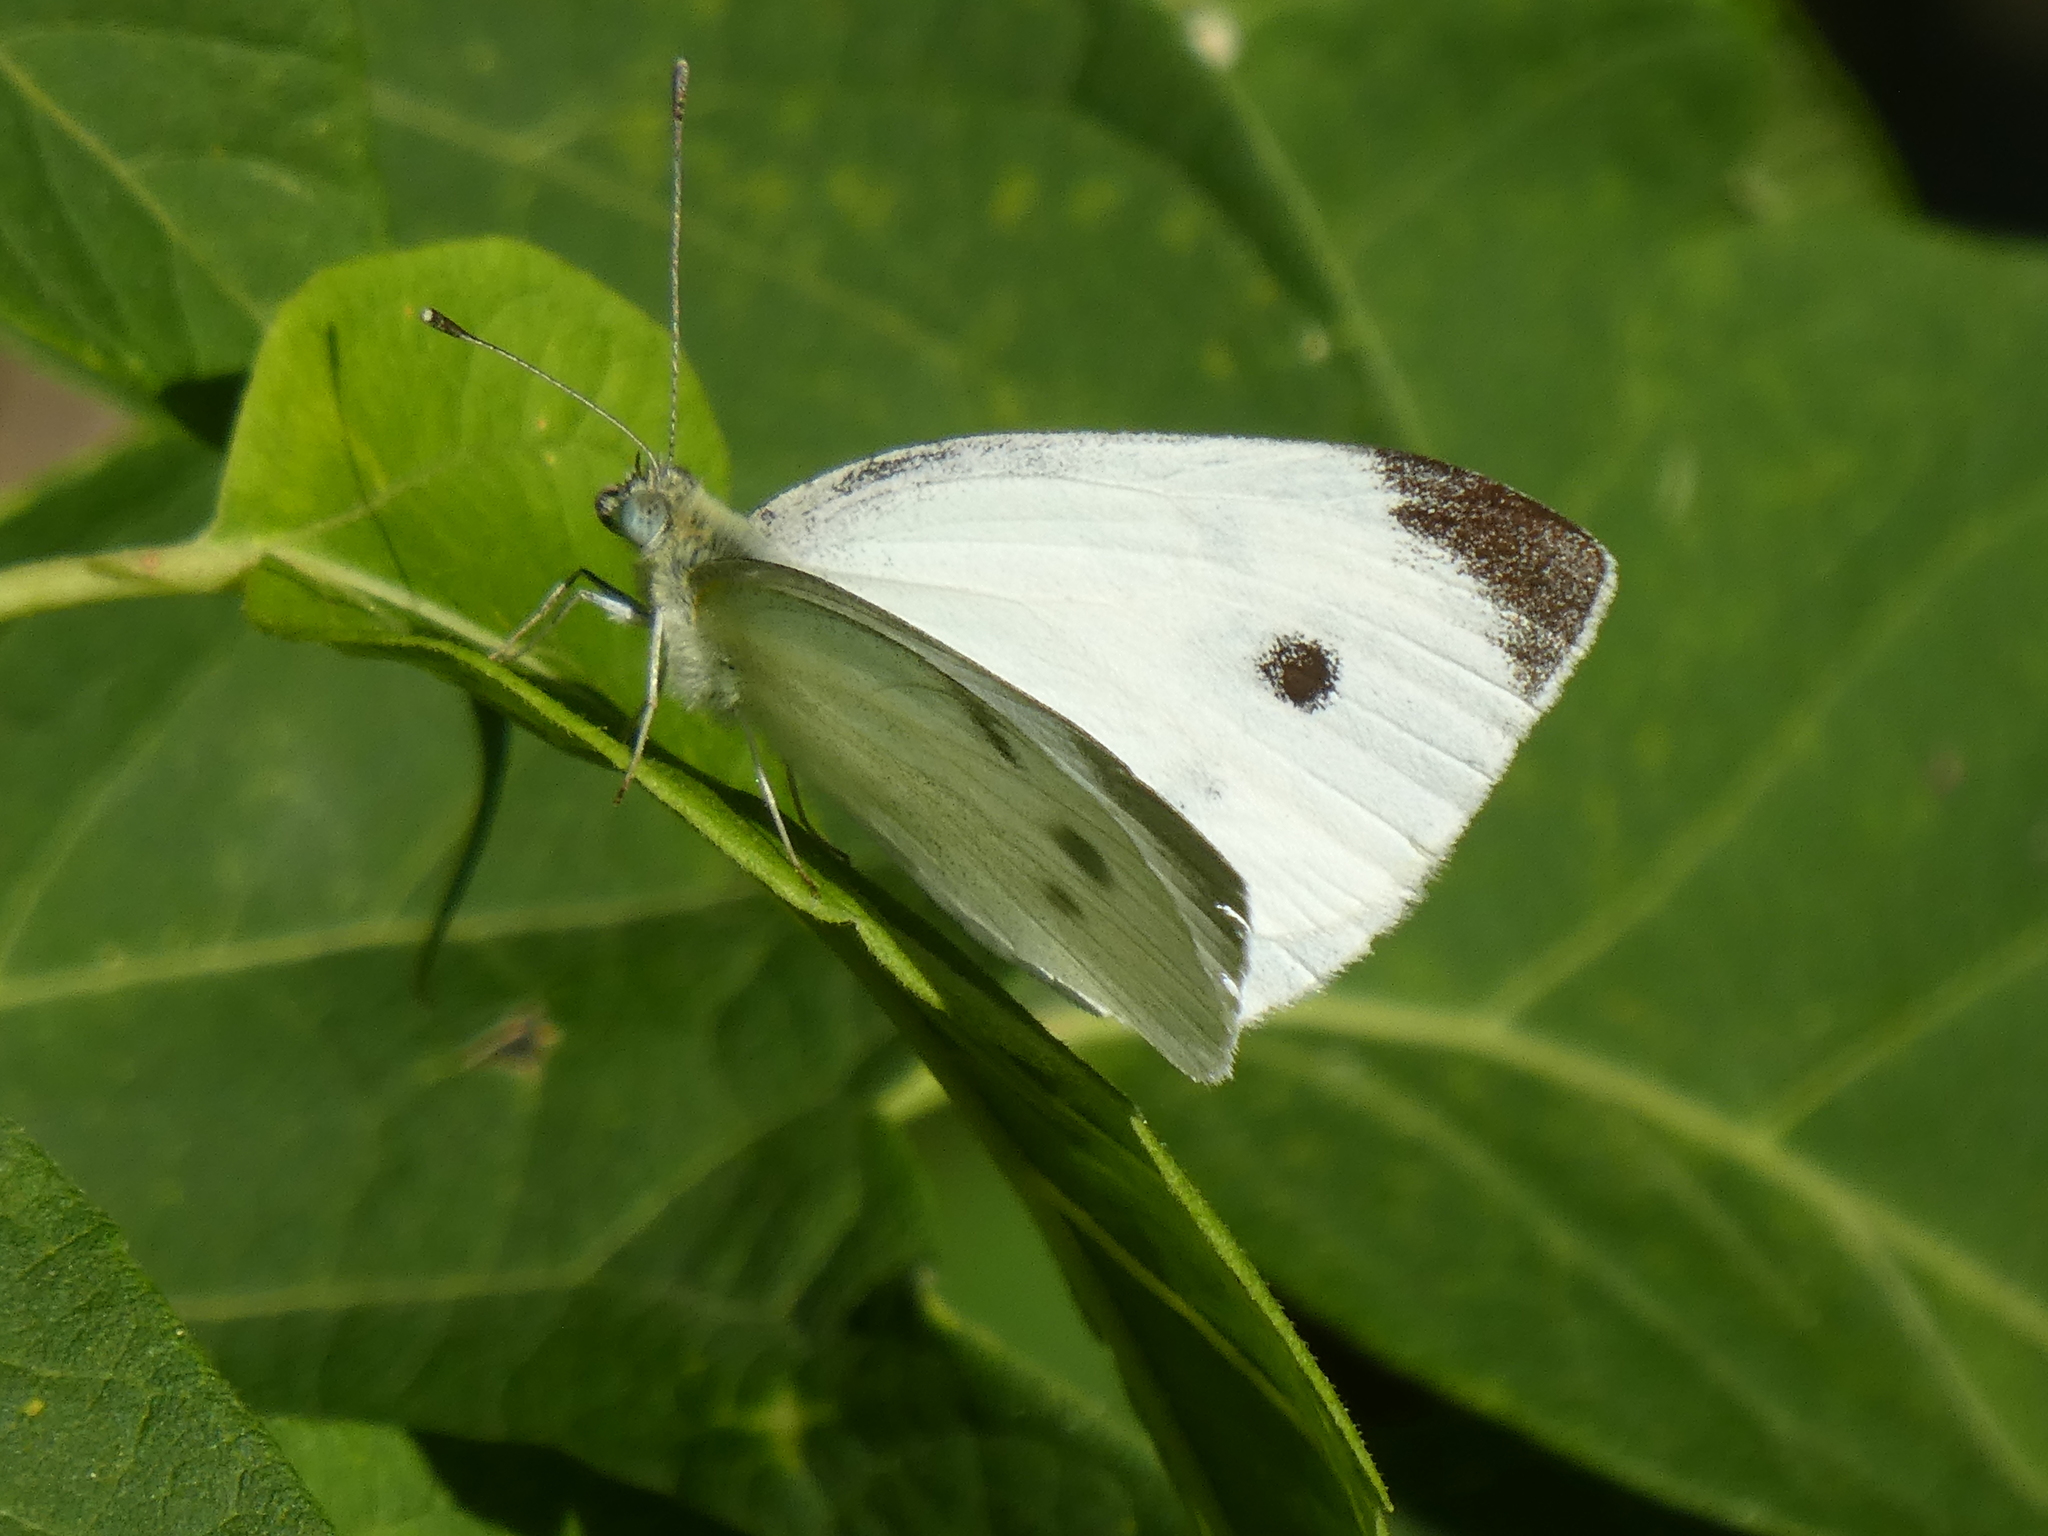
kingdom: Animalia
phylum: Arthropoda
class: Insecta
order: Lepidoptera
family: Pieridae
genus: Pieris
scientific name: Pieris rapae
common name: Small white
